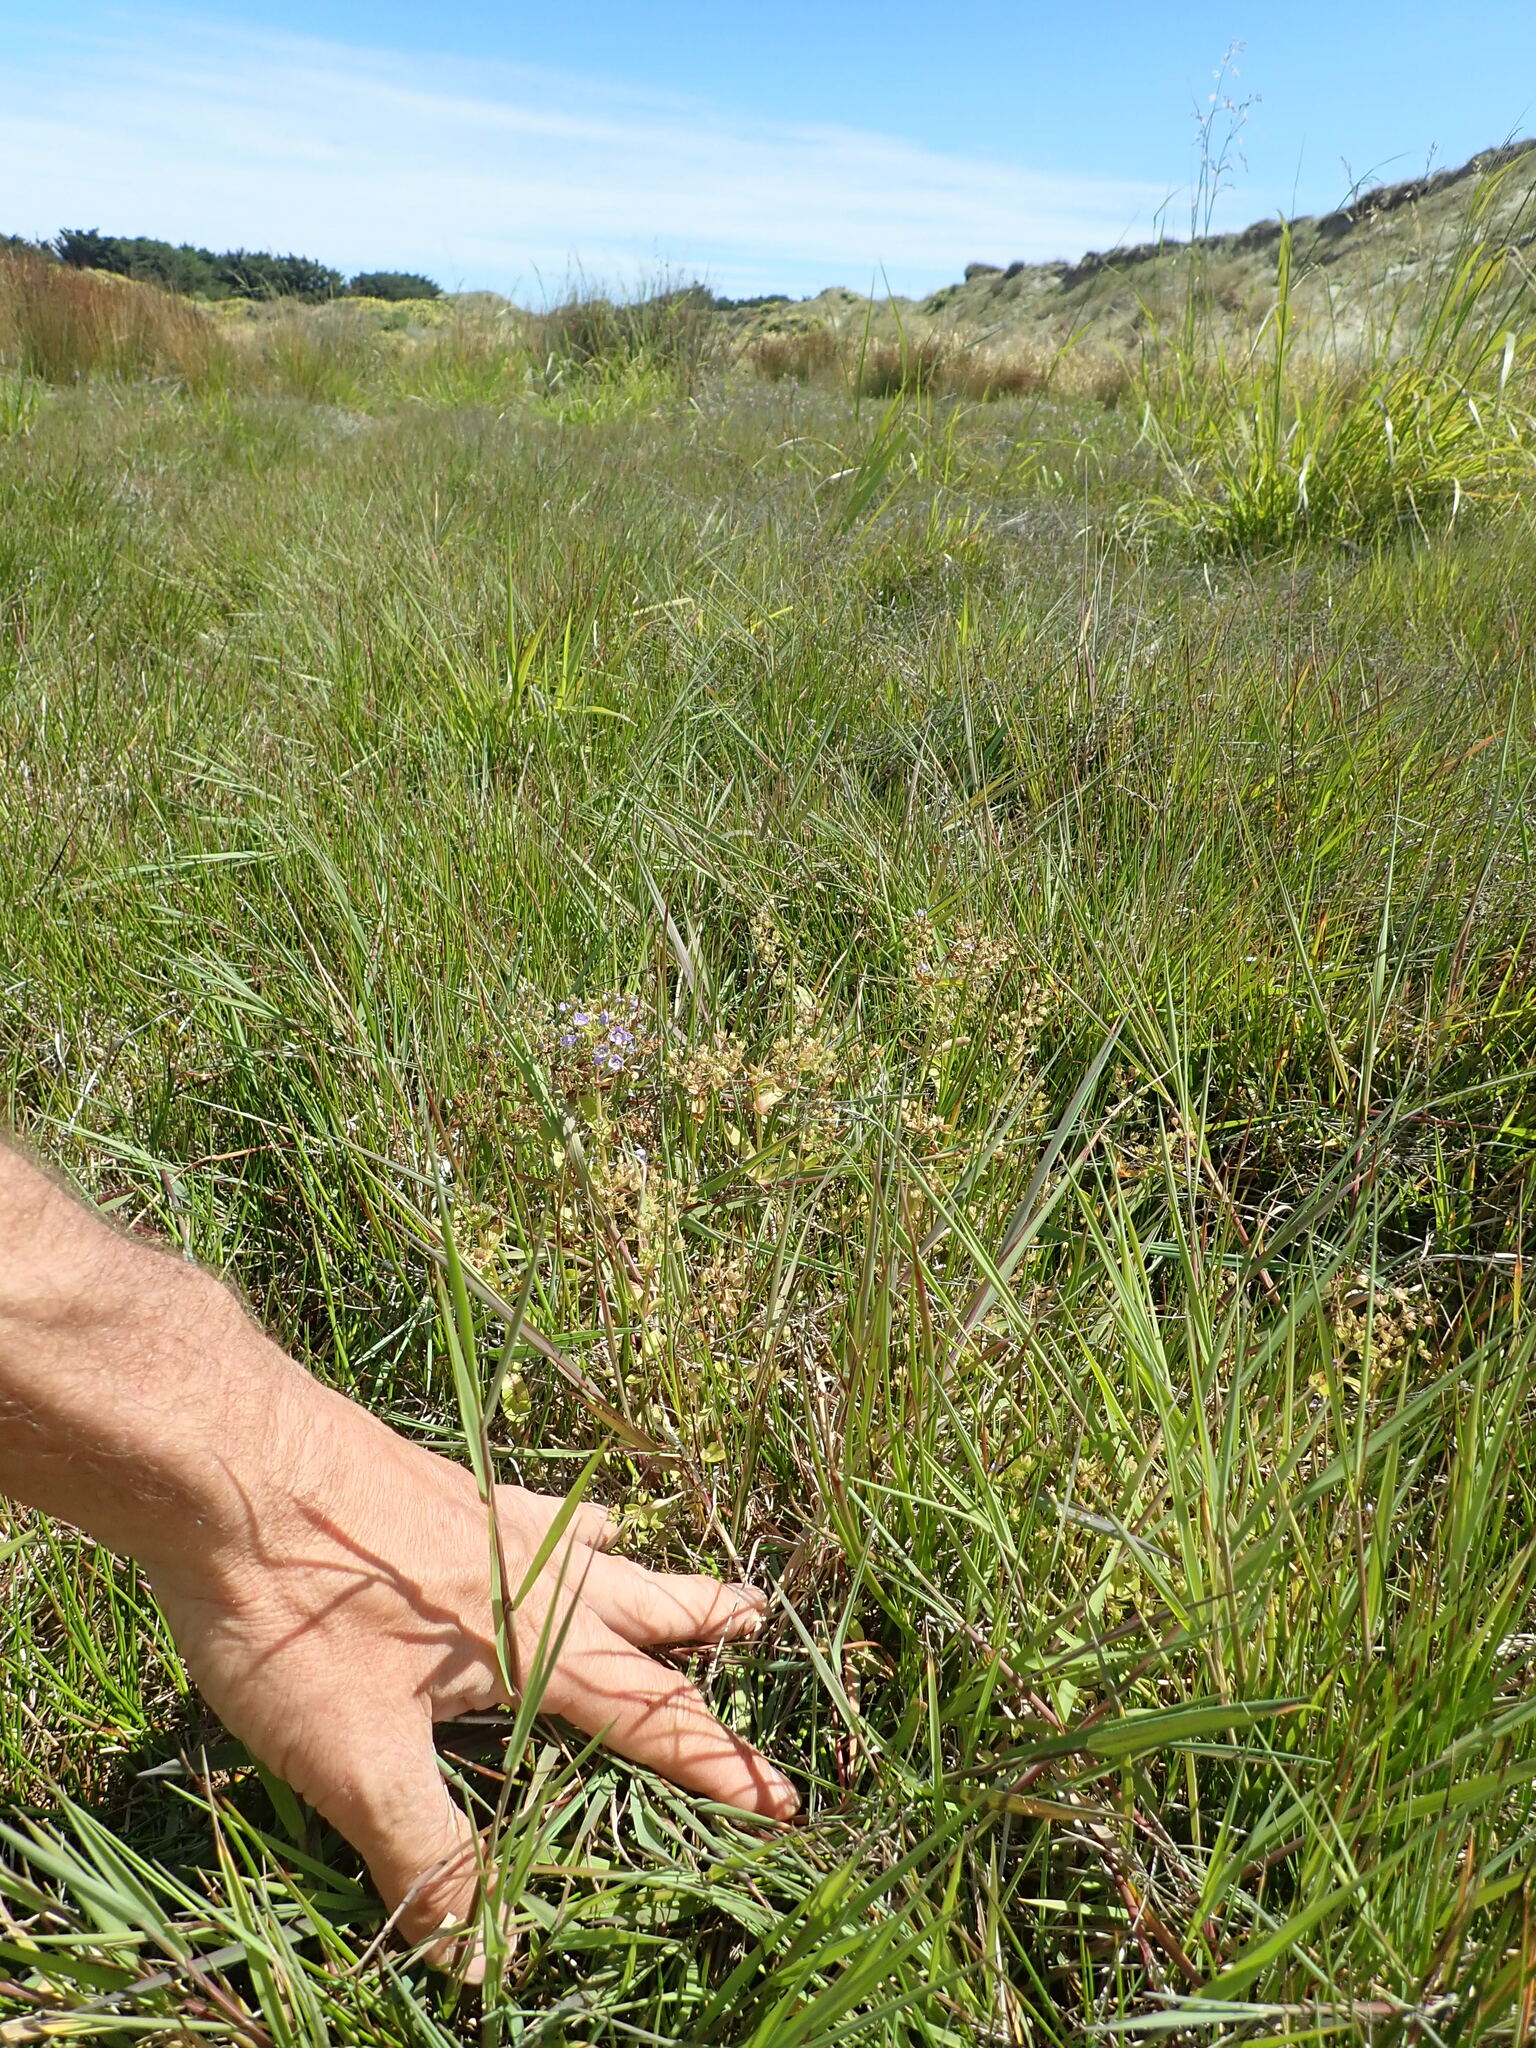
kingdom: Plantae
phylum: Tracheophyta
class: Magnoliopsida
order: Lamiales
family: Plantaginaceae
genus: Veronica
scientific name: Veronica anagallis-aquatica
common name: Water speedwell
